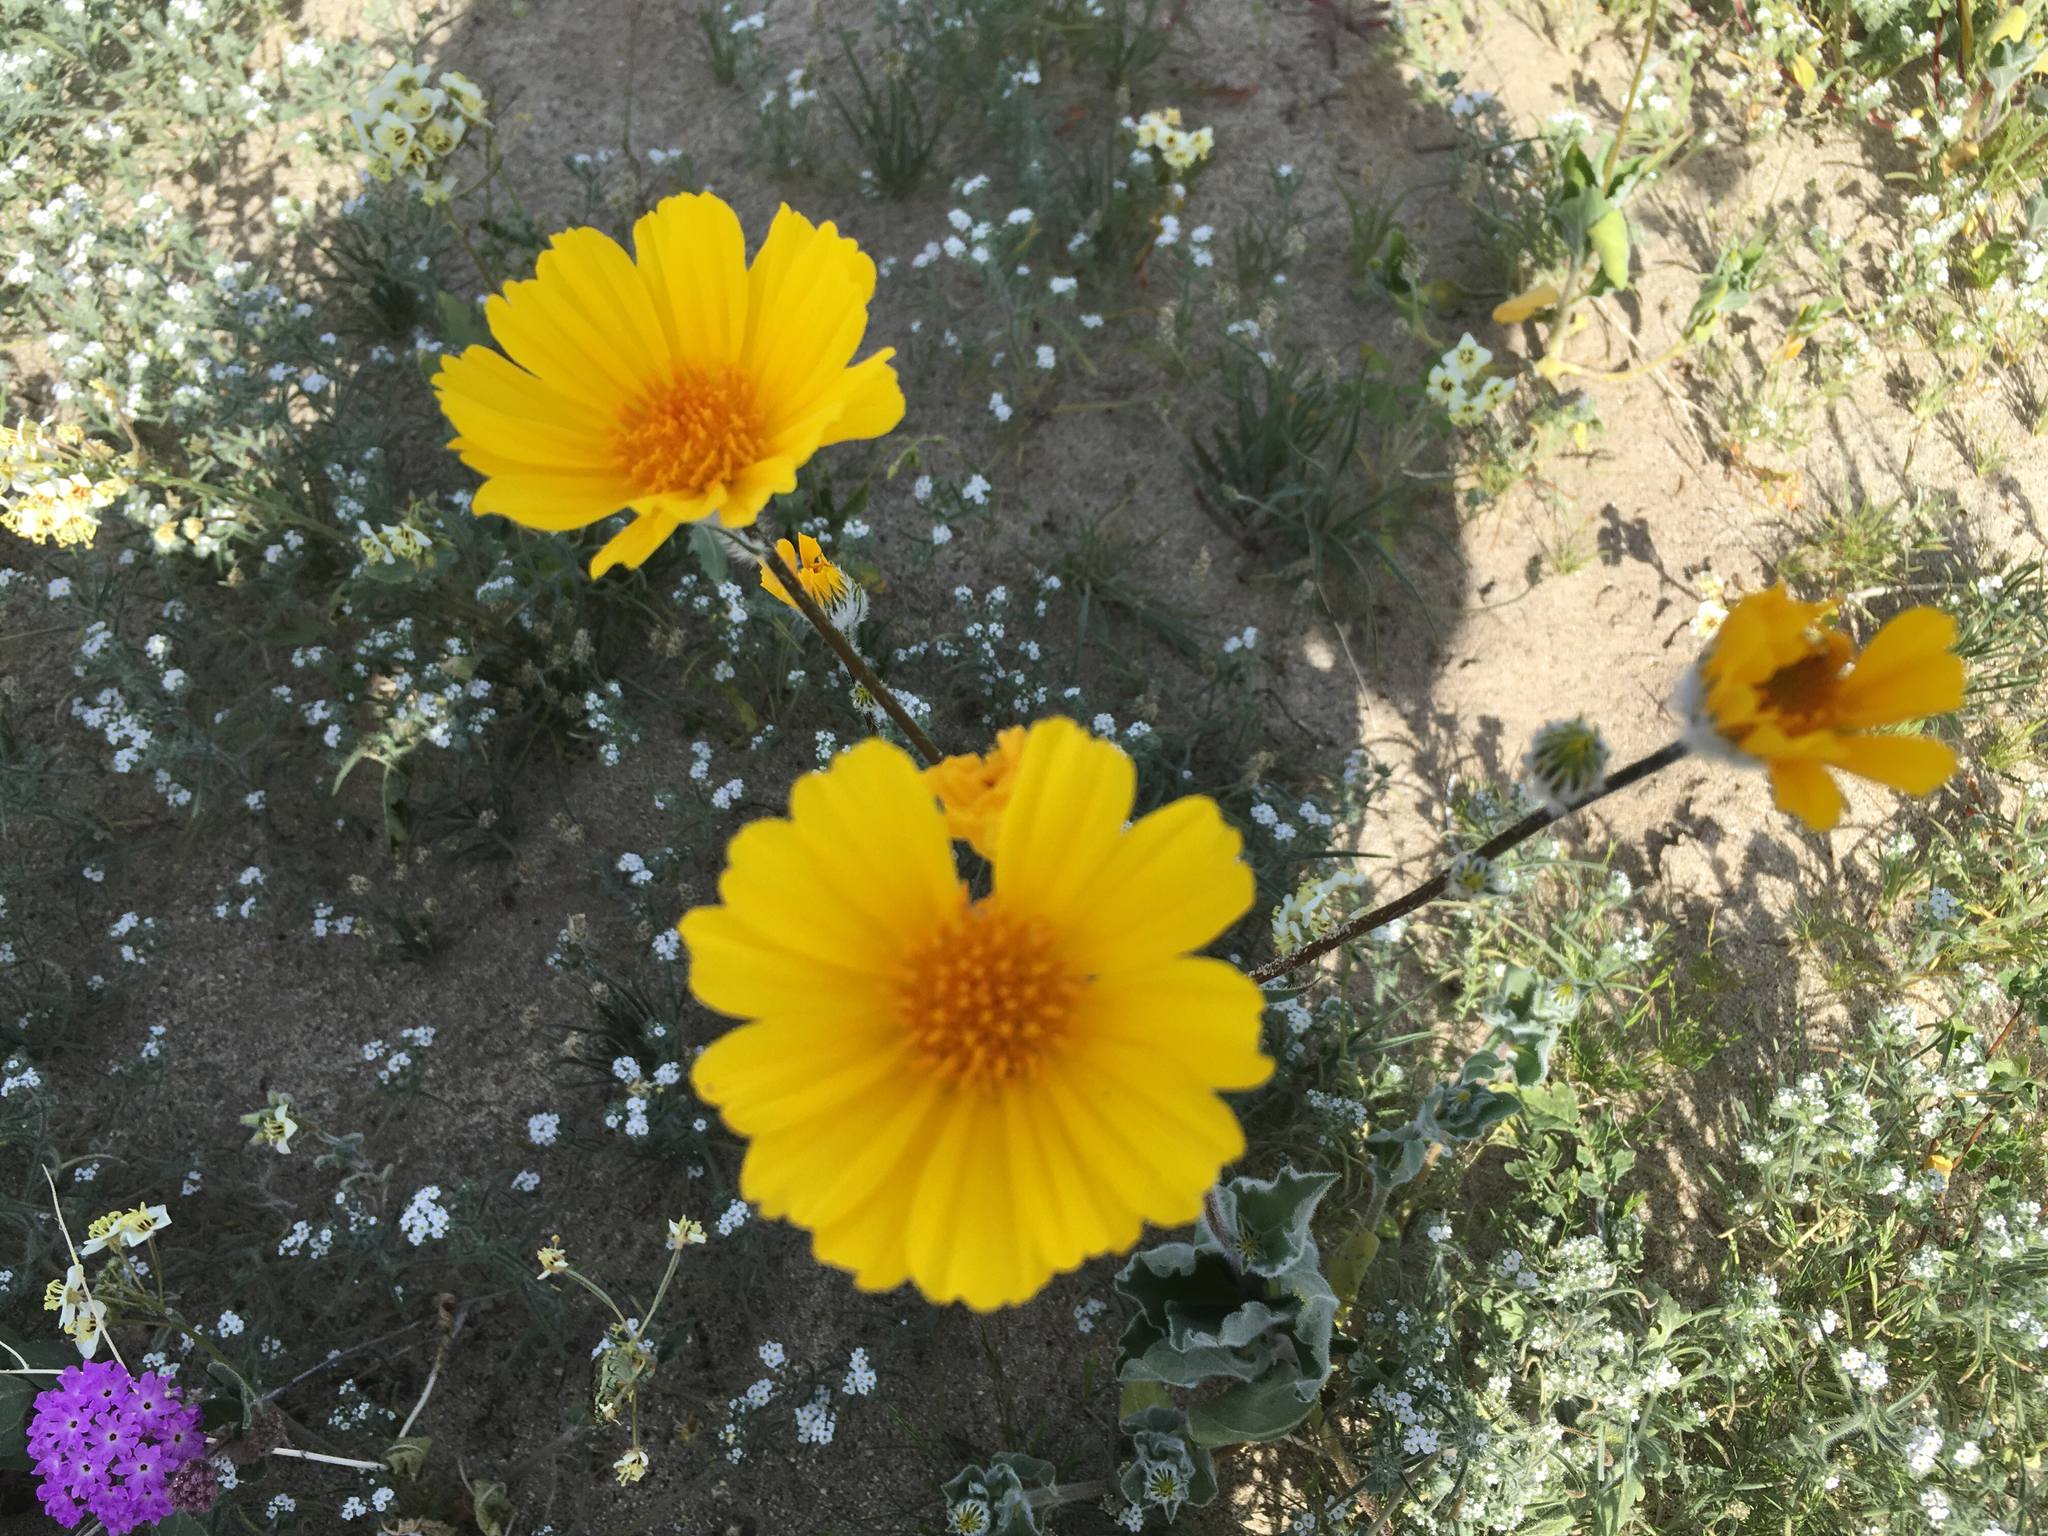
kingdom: Plantae
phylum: Tracheophyta
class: Magnoliopsida
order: Asterales
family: Asteraceae
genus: Geraea
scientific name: Geraea canescens
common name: Desert-gold
